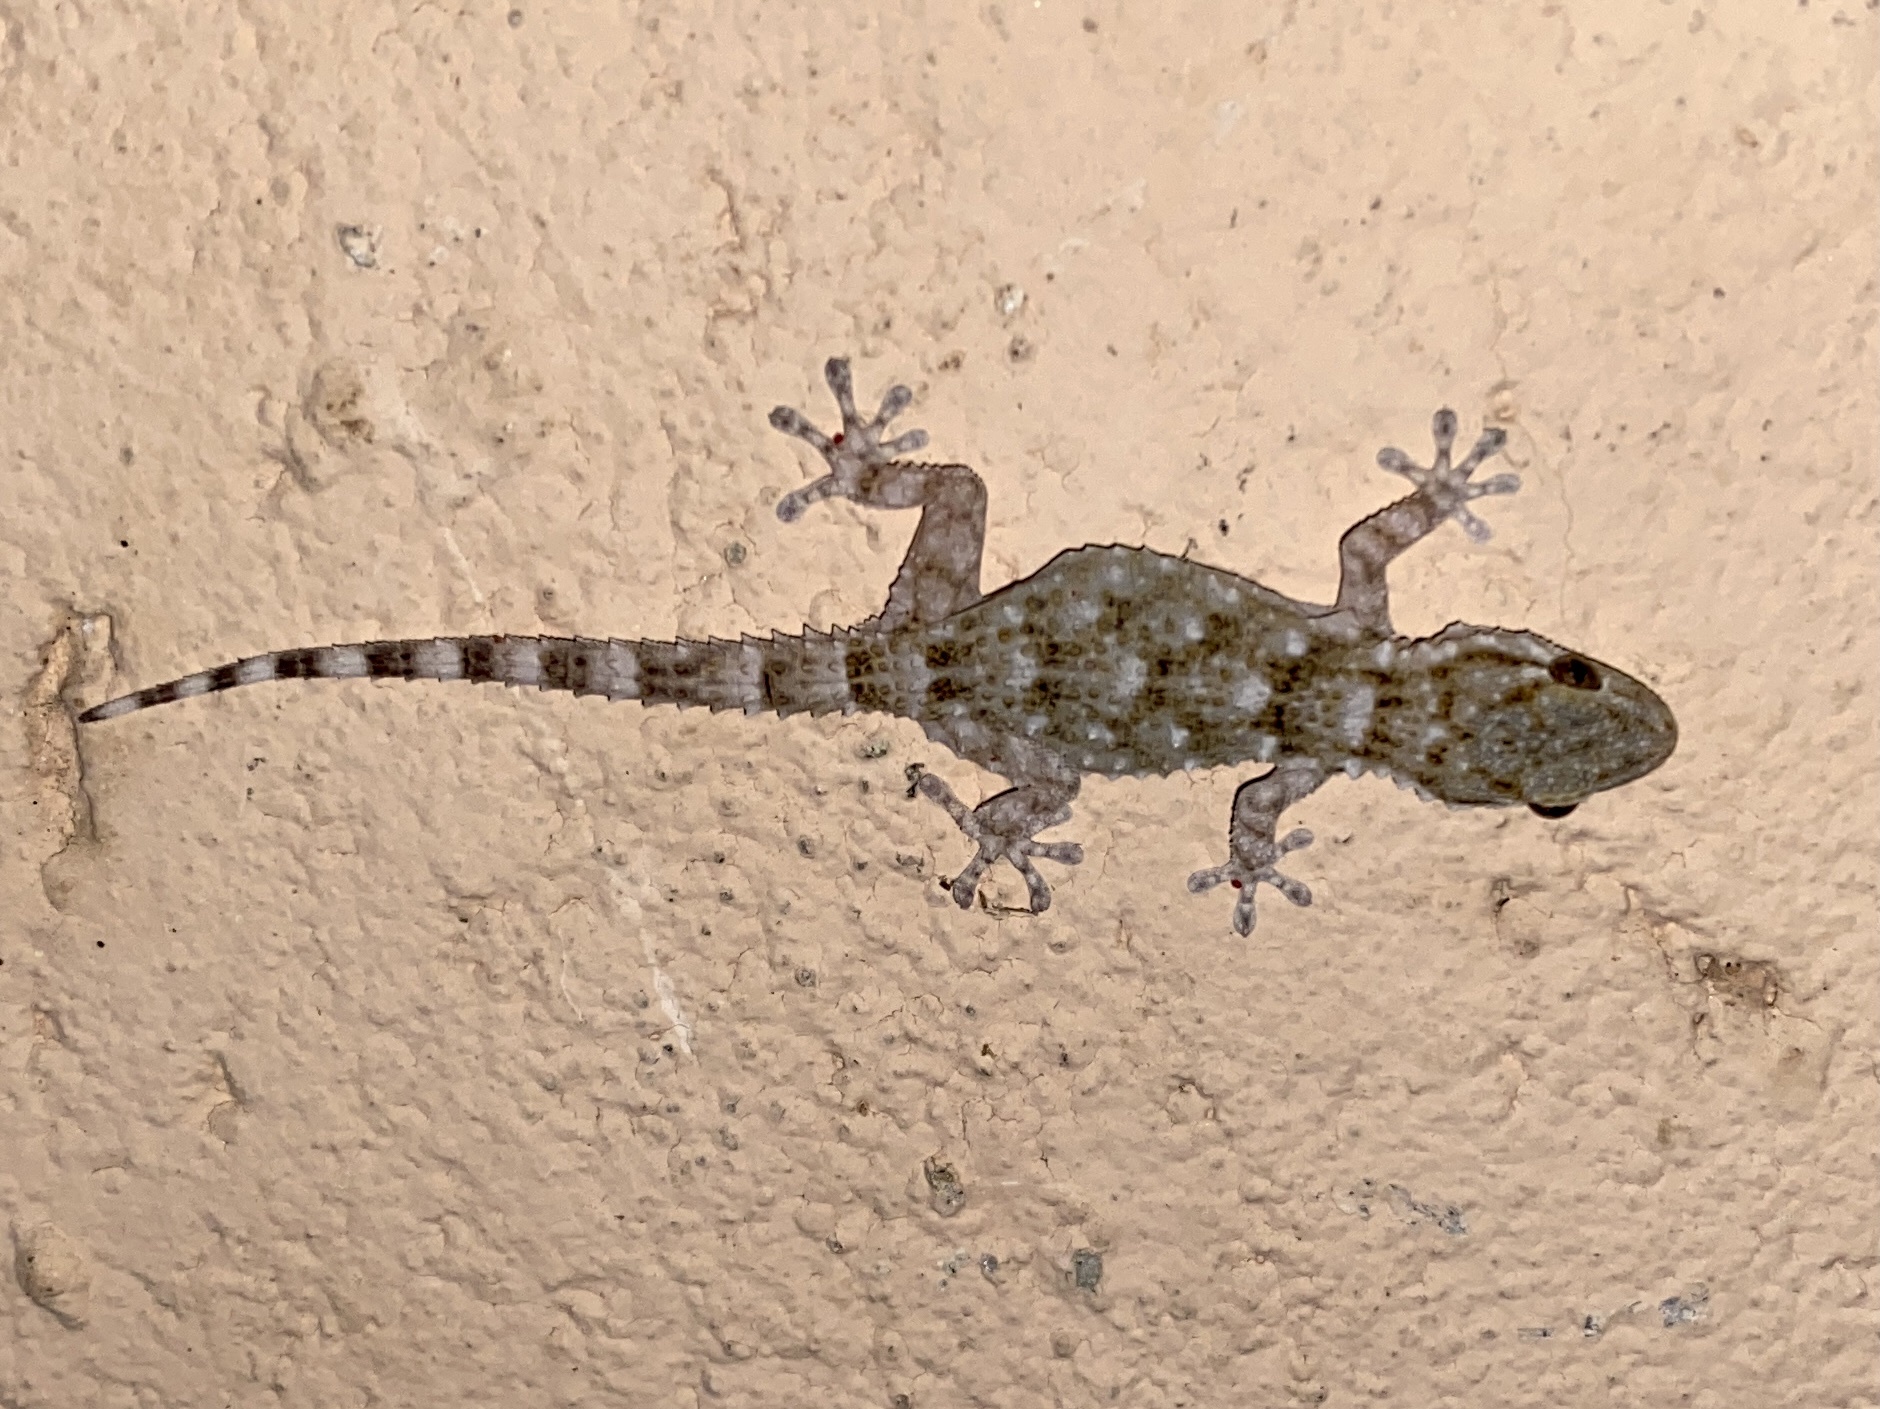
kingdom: Animalia
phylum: Chordata
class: Squamata
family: Phyllodactylidae
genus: Tarentola
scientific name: Tarentola mauritanica
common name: Moorish gecko
